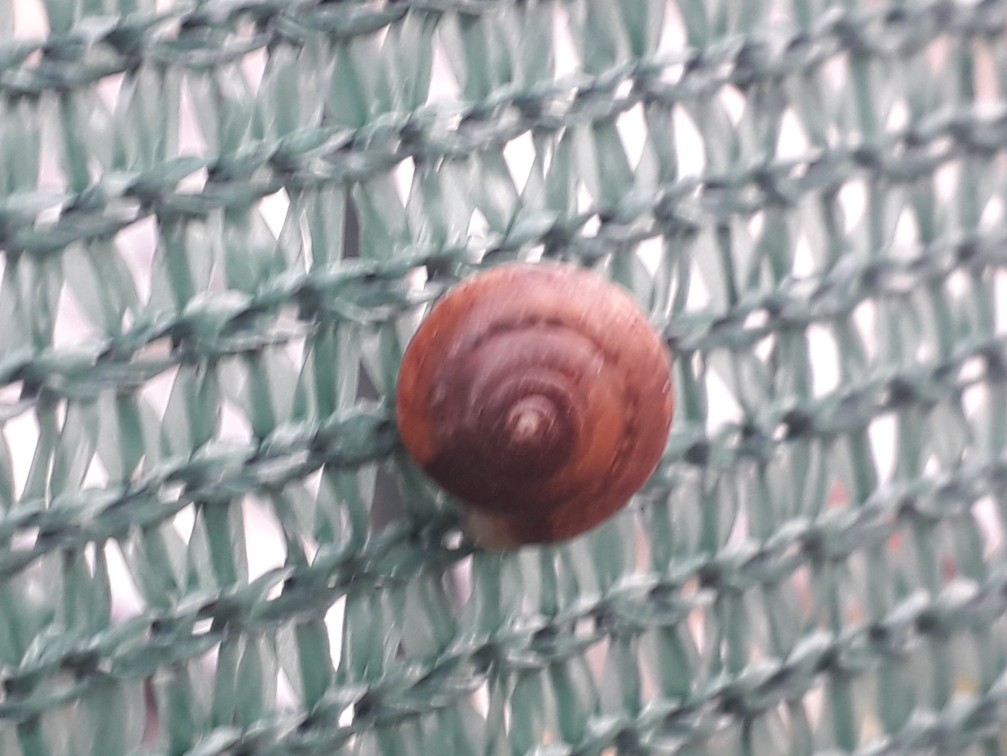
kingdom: Animalia
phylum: Mollusca
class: Gastropoda
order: Stylommatophora
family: Hygromiidae
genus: Hygromia
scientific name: Hygromia cinctella
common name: Girdled snail
